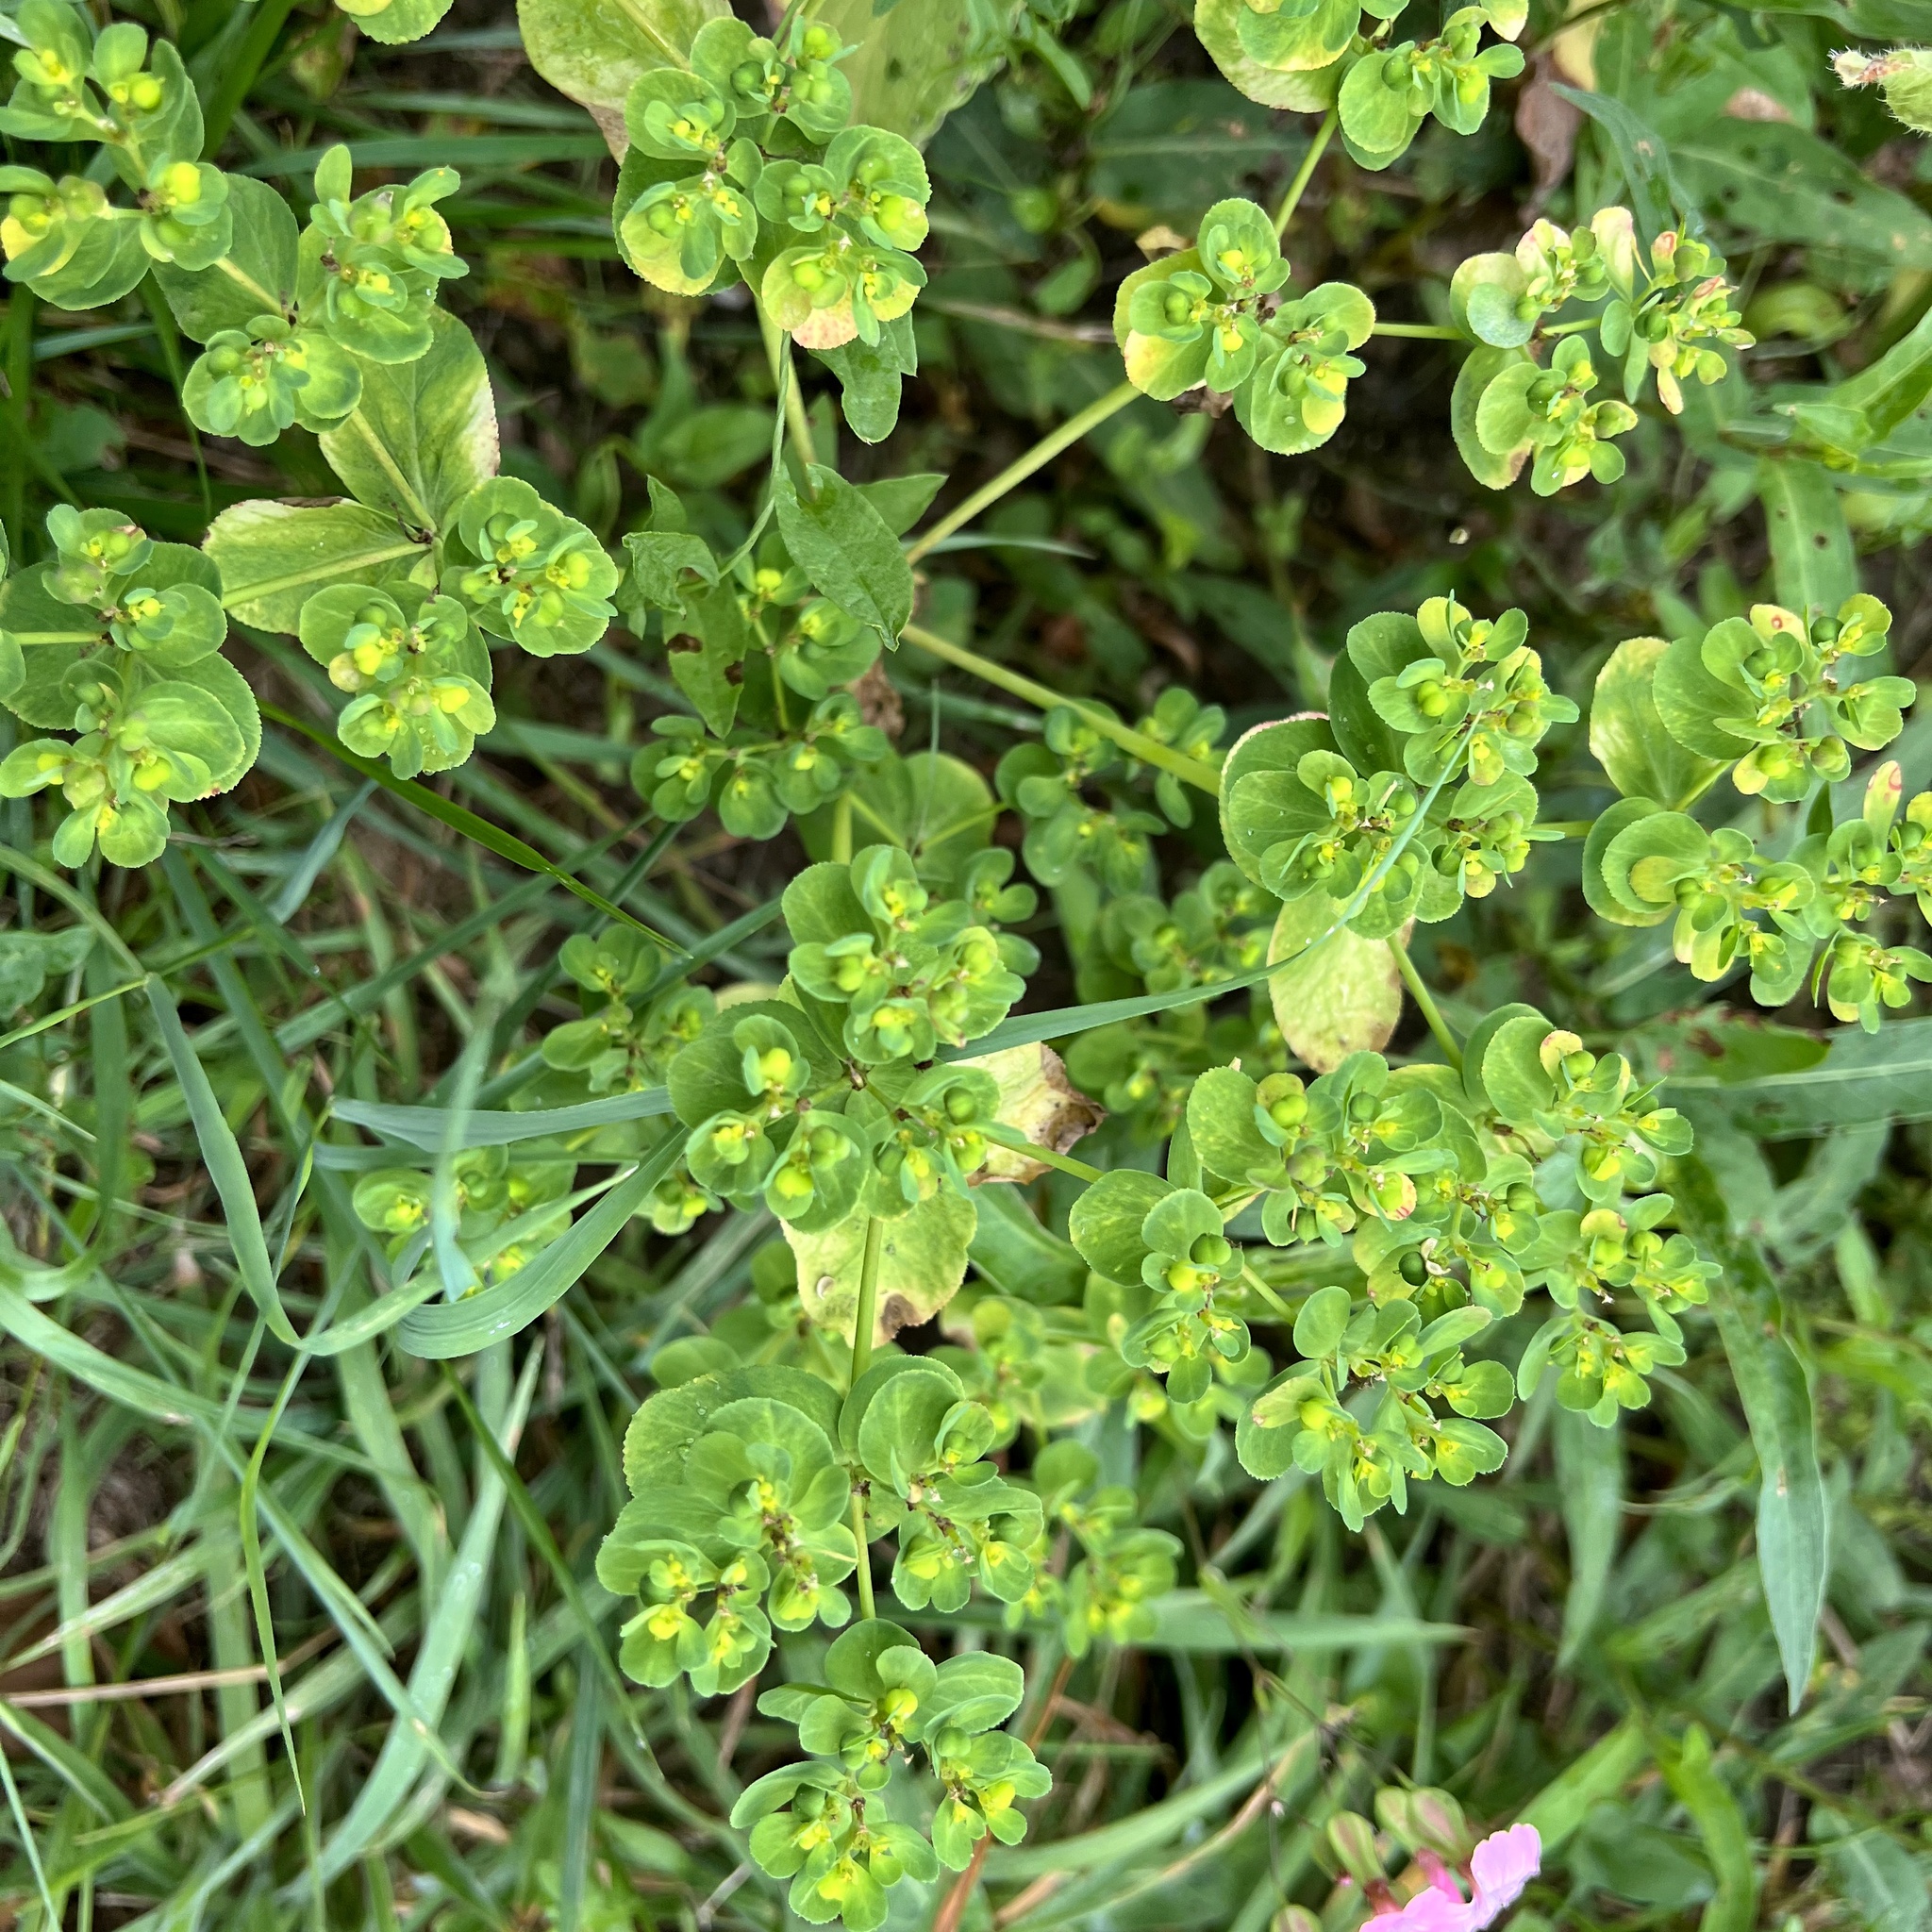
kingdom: Plantae
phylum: Tracheophyta
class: Magnoliopsida
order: Malpighiales
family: Euphorbiaceae
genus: Euphorbia
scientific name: Euphorbia helioscopia
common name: Sun spurge
